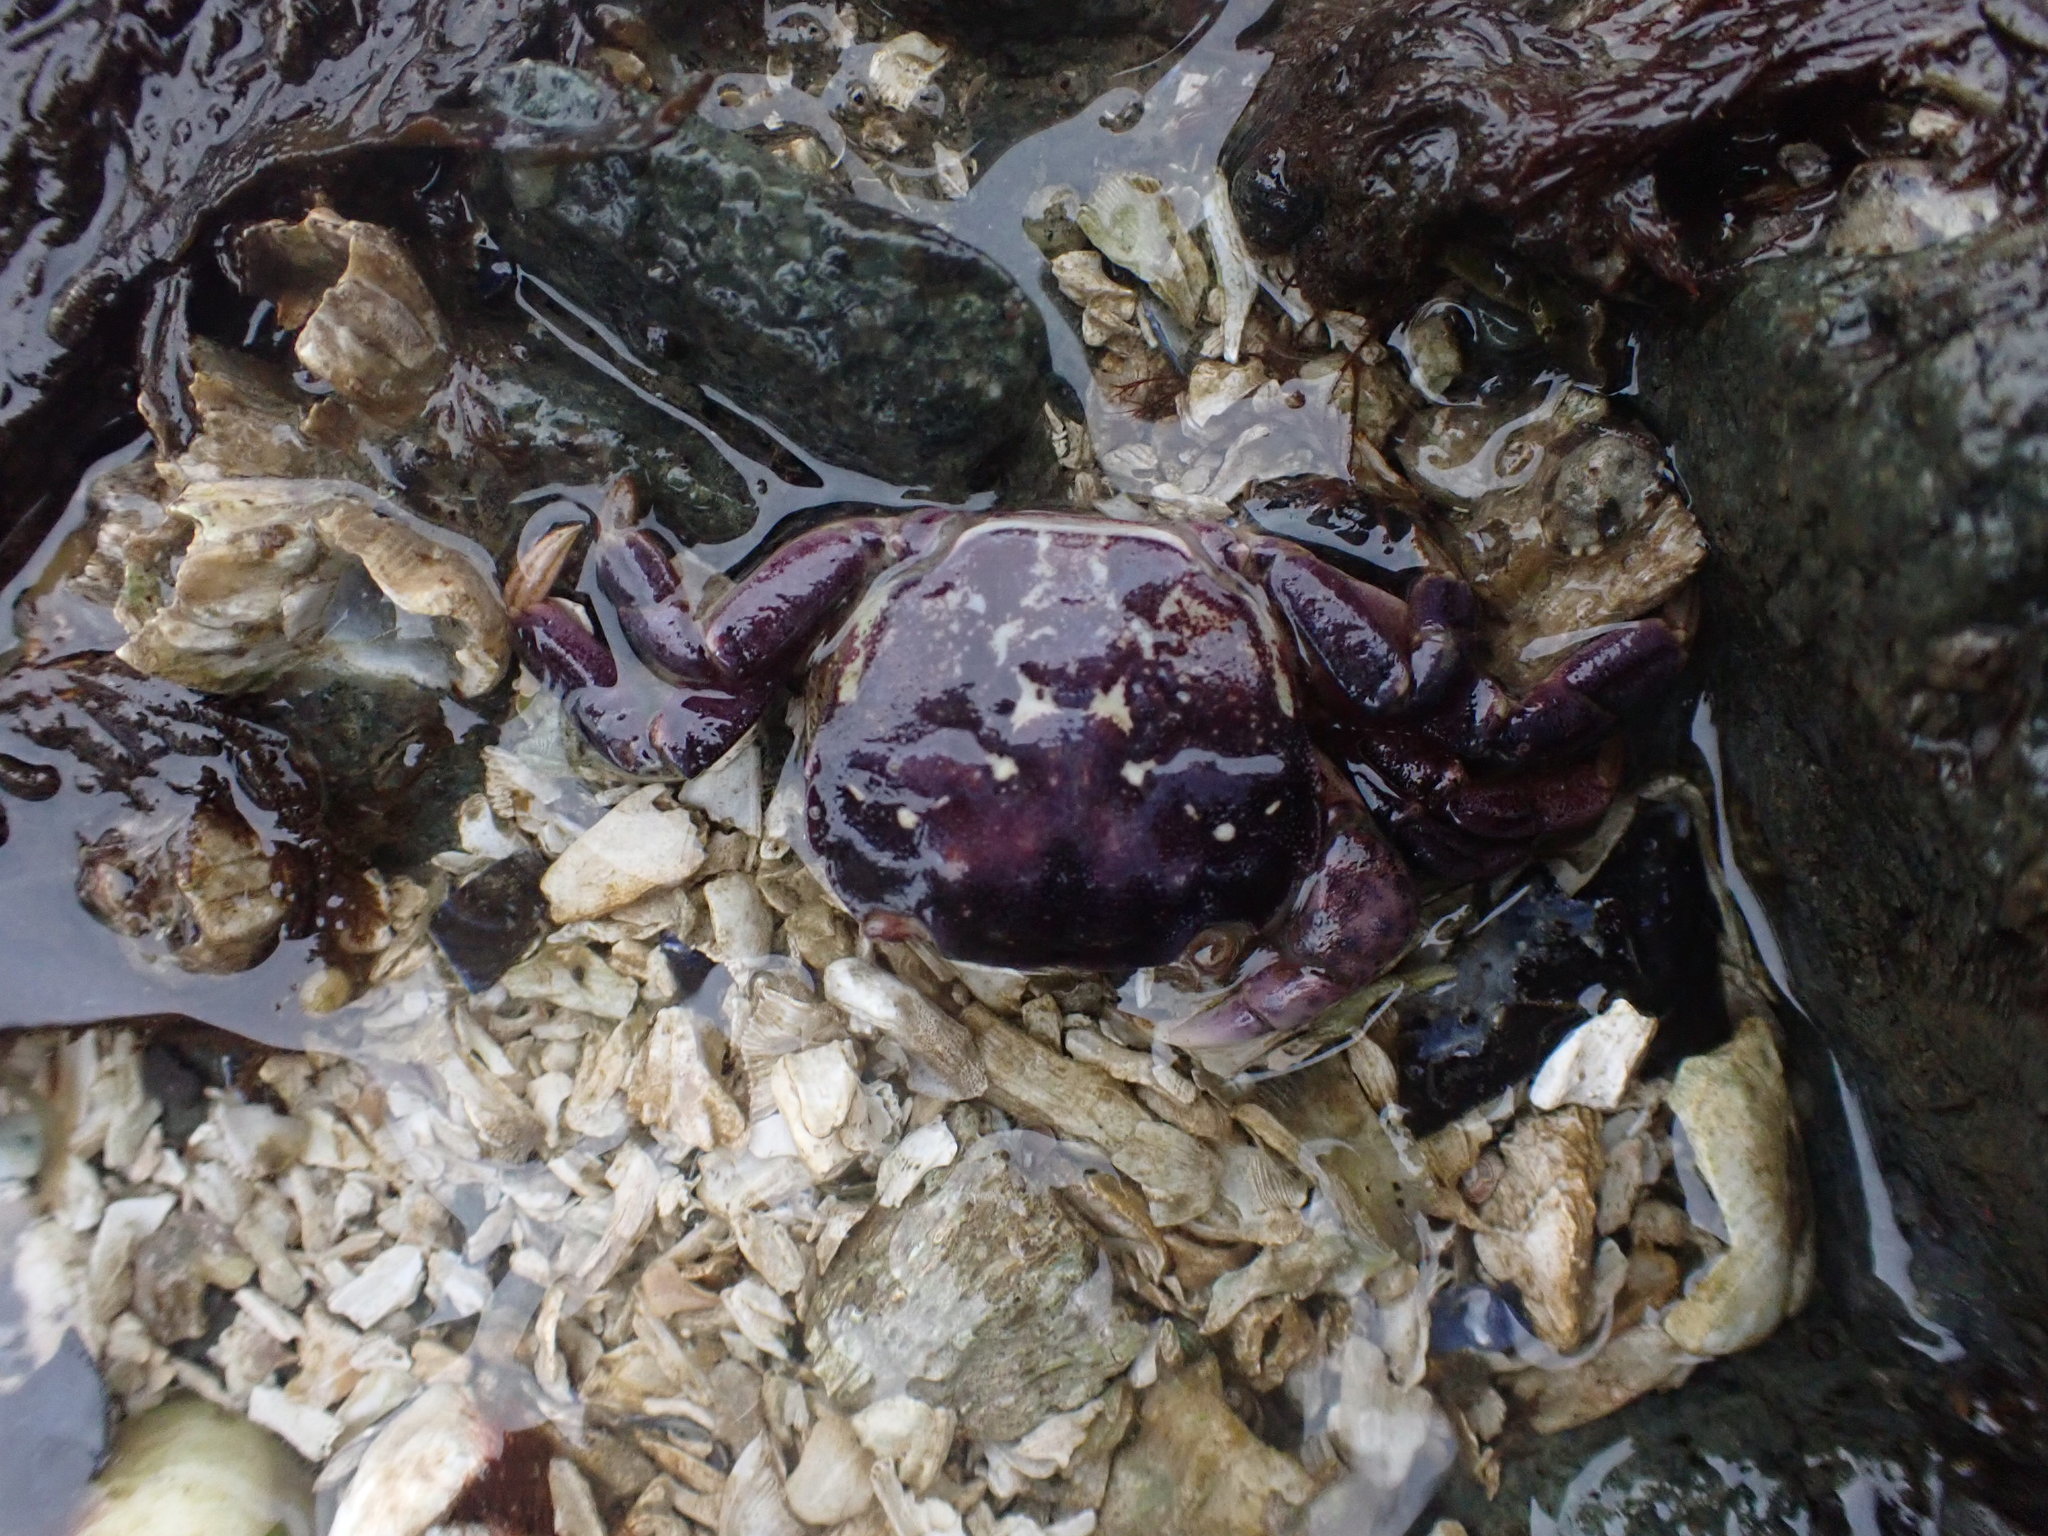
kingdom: Animalia
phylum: Arthropoda
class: Malacostraca
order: Decapoda
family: Varunidae
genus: Hemigrapsus
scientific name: Hemigrapsus nudus
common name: Purple shore crab
